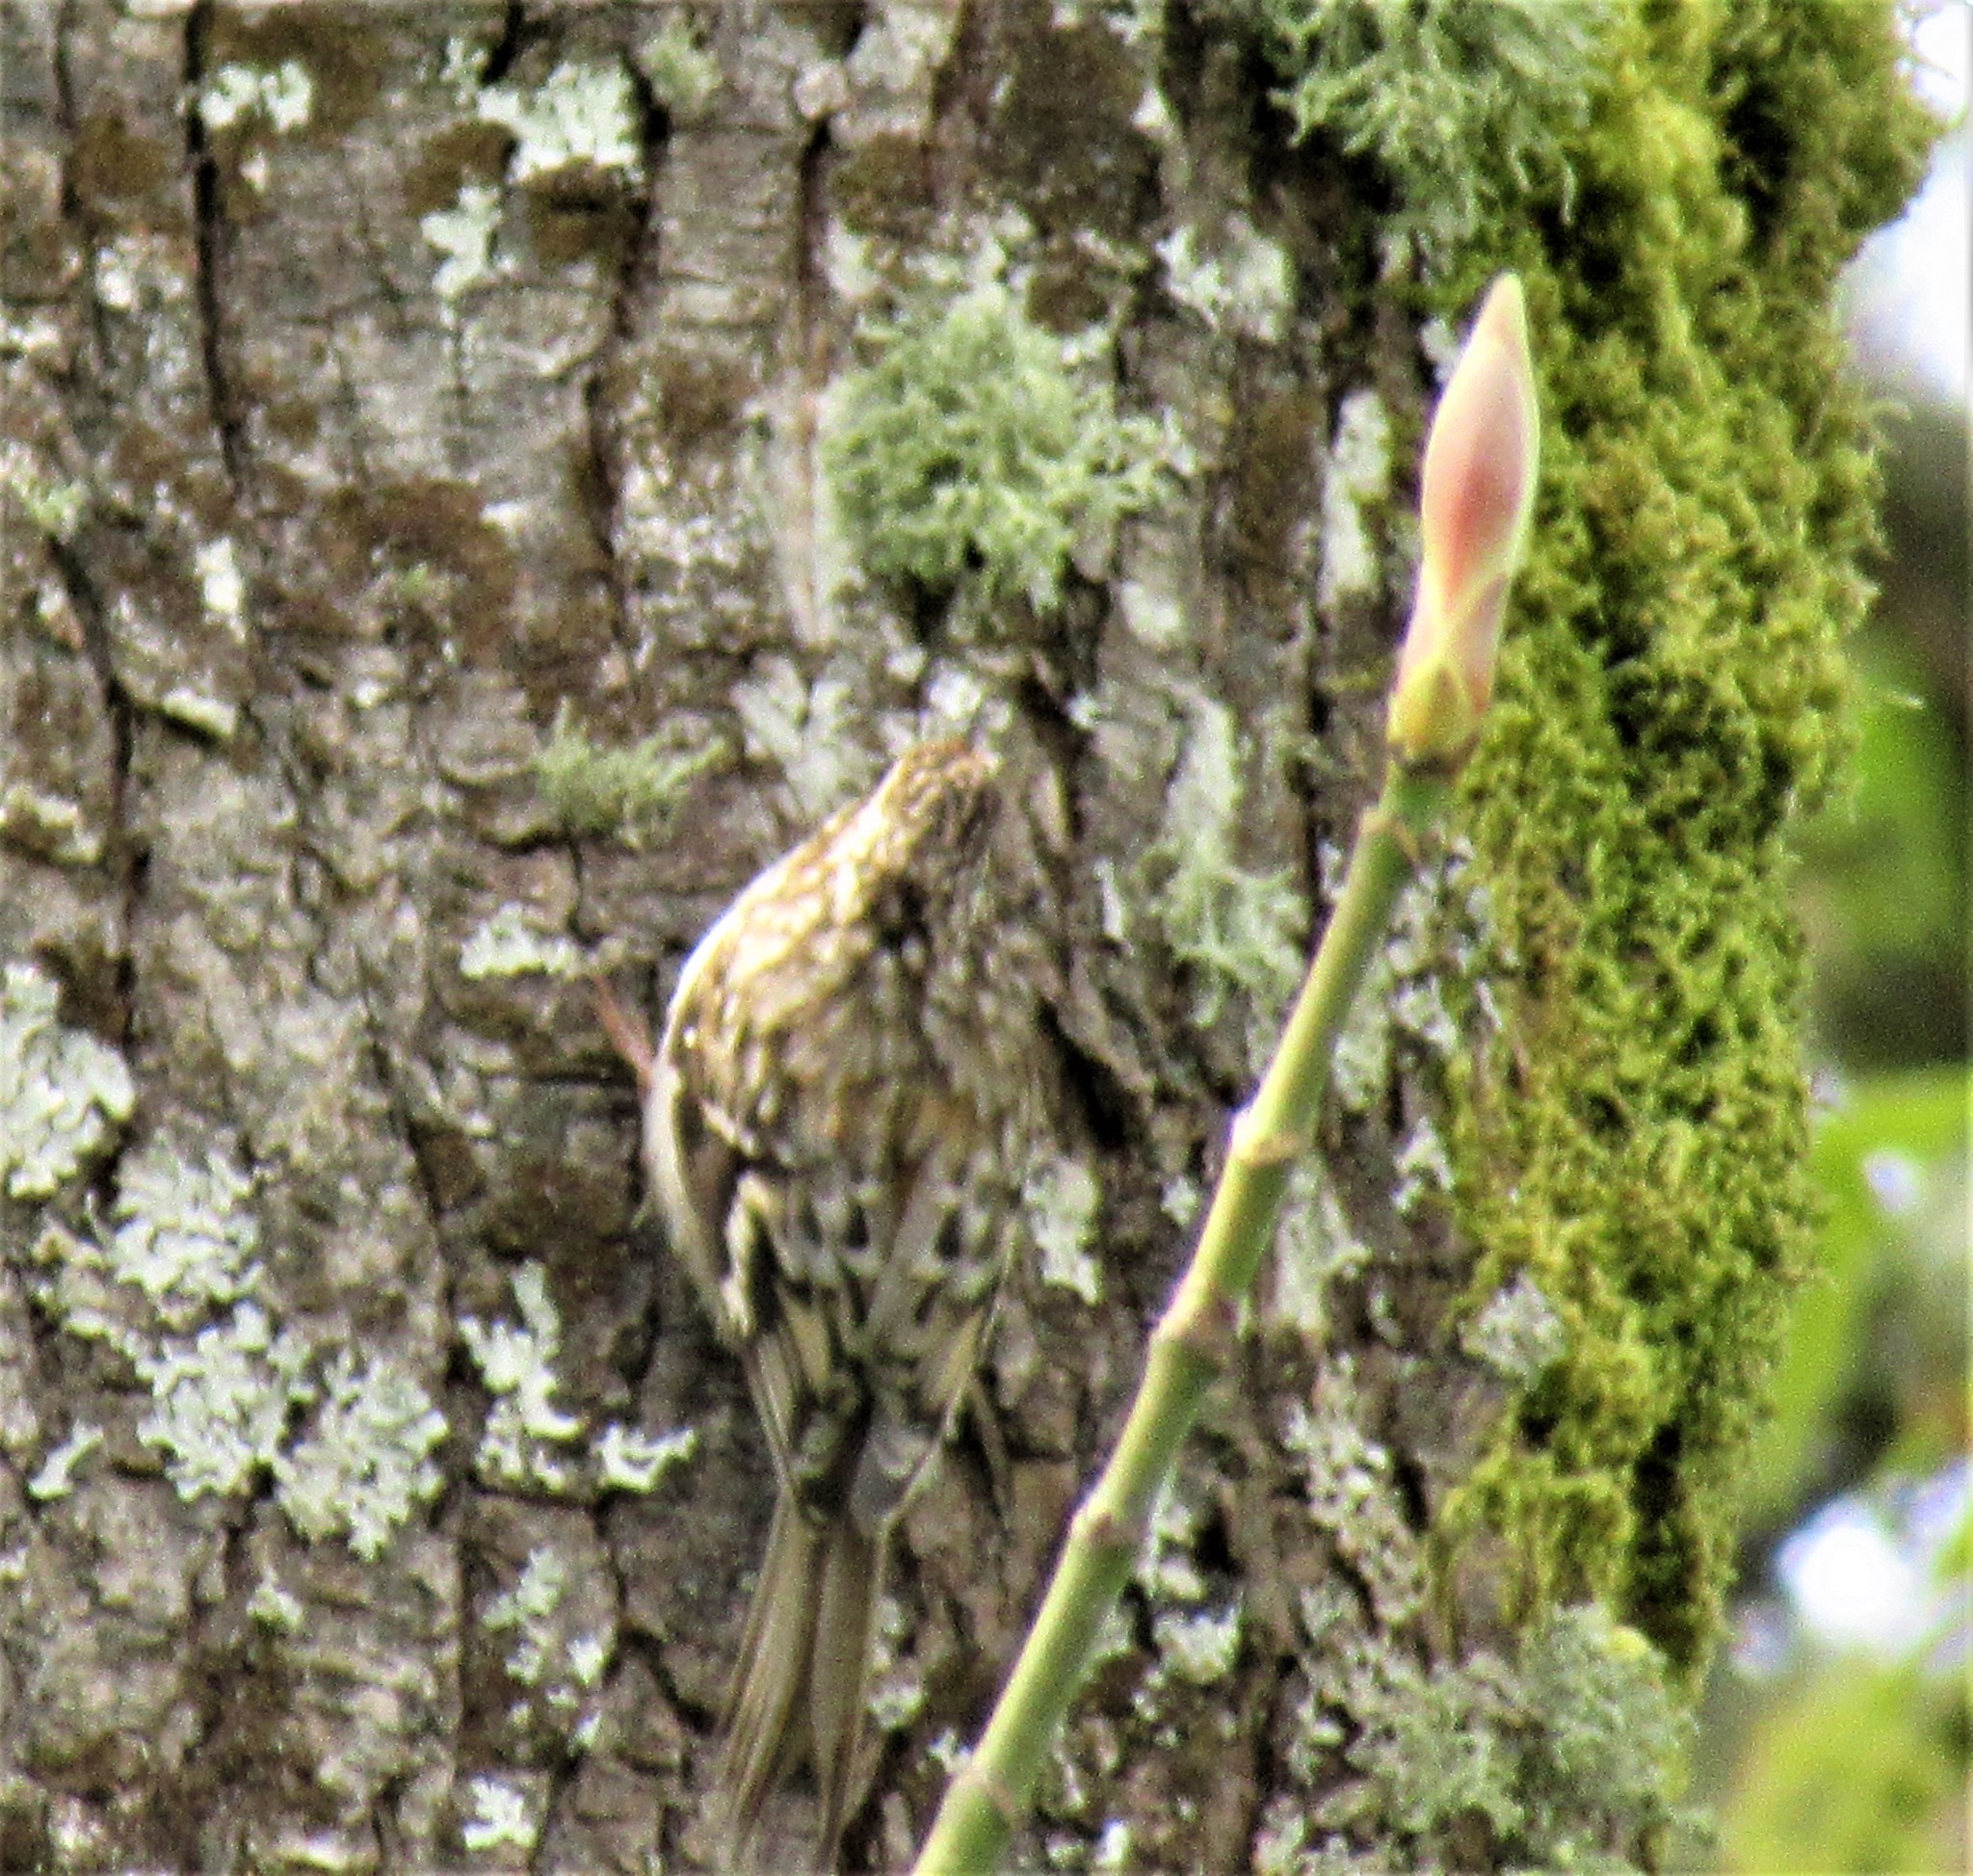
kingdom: Animalia
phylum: Chordata
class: Aves
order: Passeriformes
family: Certhiidae
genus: Certhia
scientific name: Certhia americana
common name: Brown creeper
